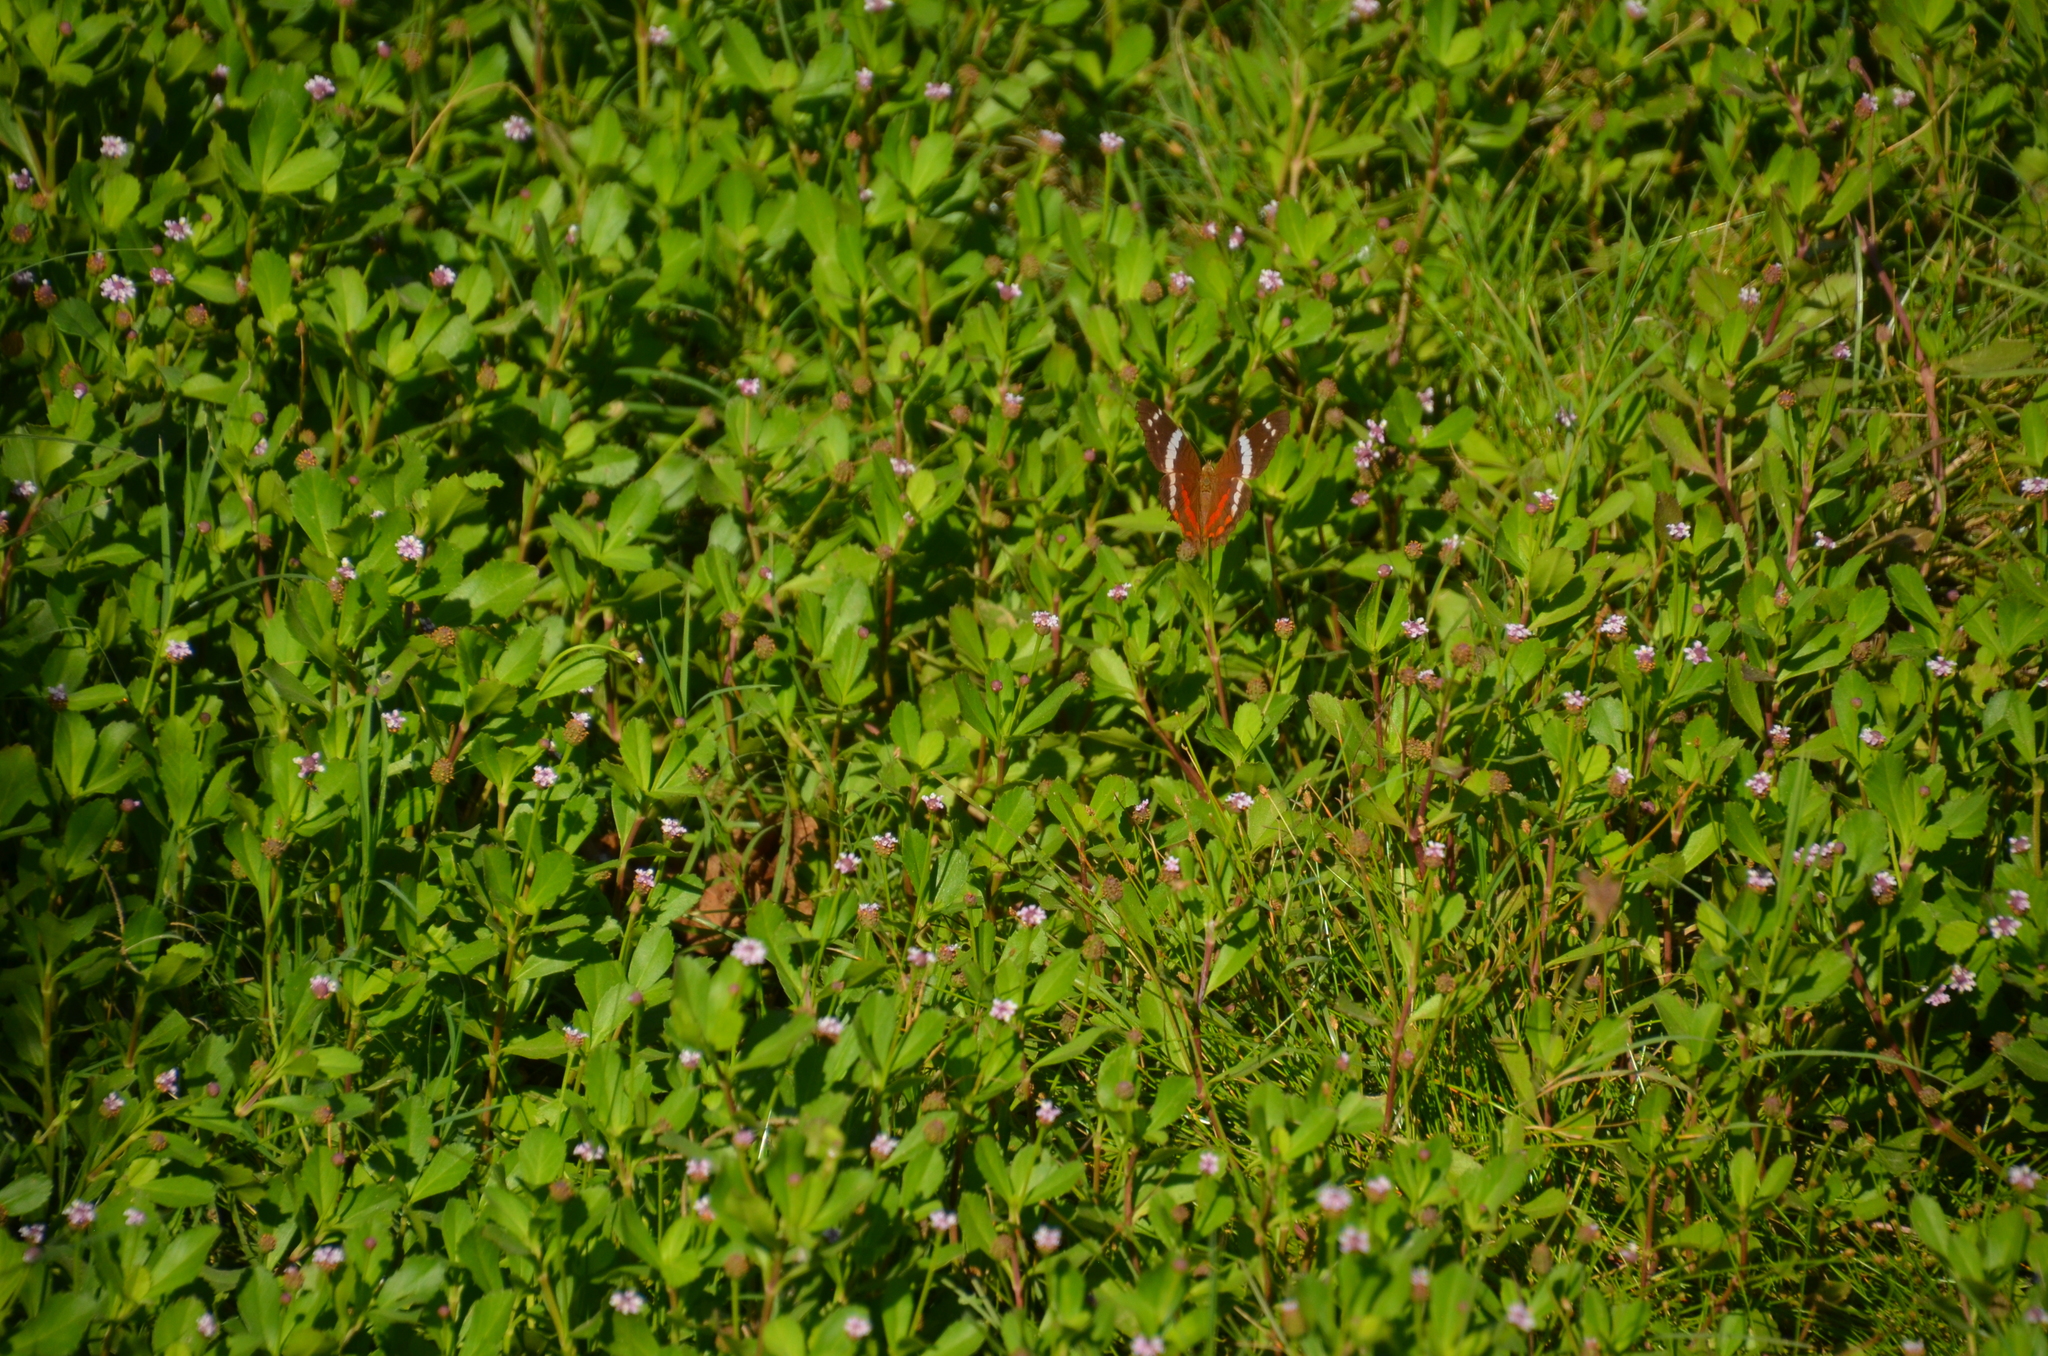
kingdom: Animalia
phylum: Arthropoda
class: Insecta
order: Lepidoptera
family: Nymphalidae
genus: Anartia
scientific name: Anartia fatima
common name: Banded peacock
